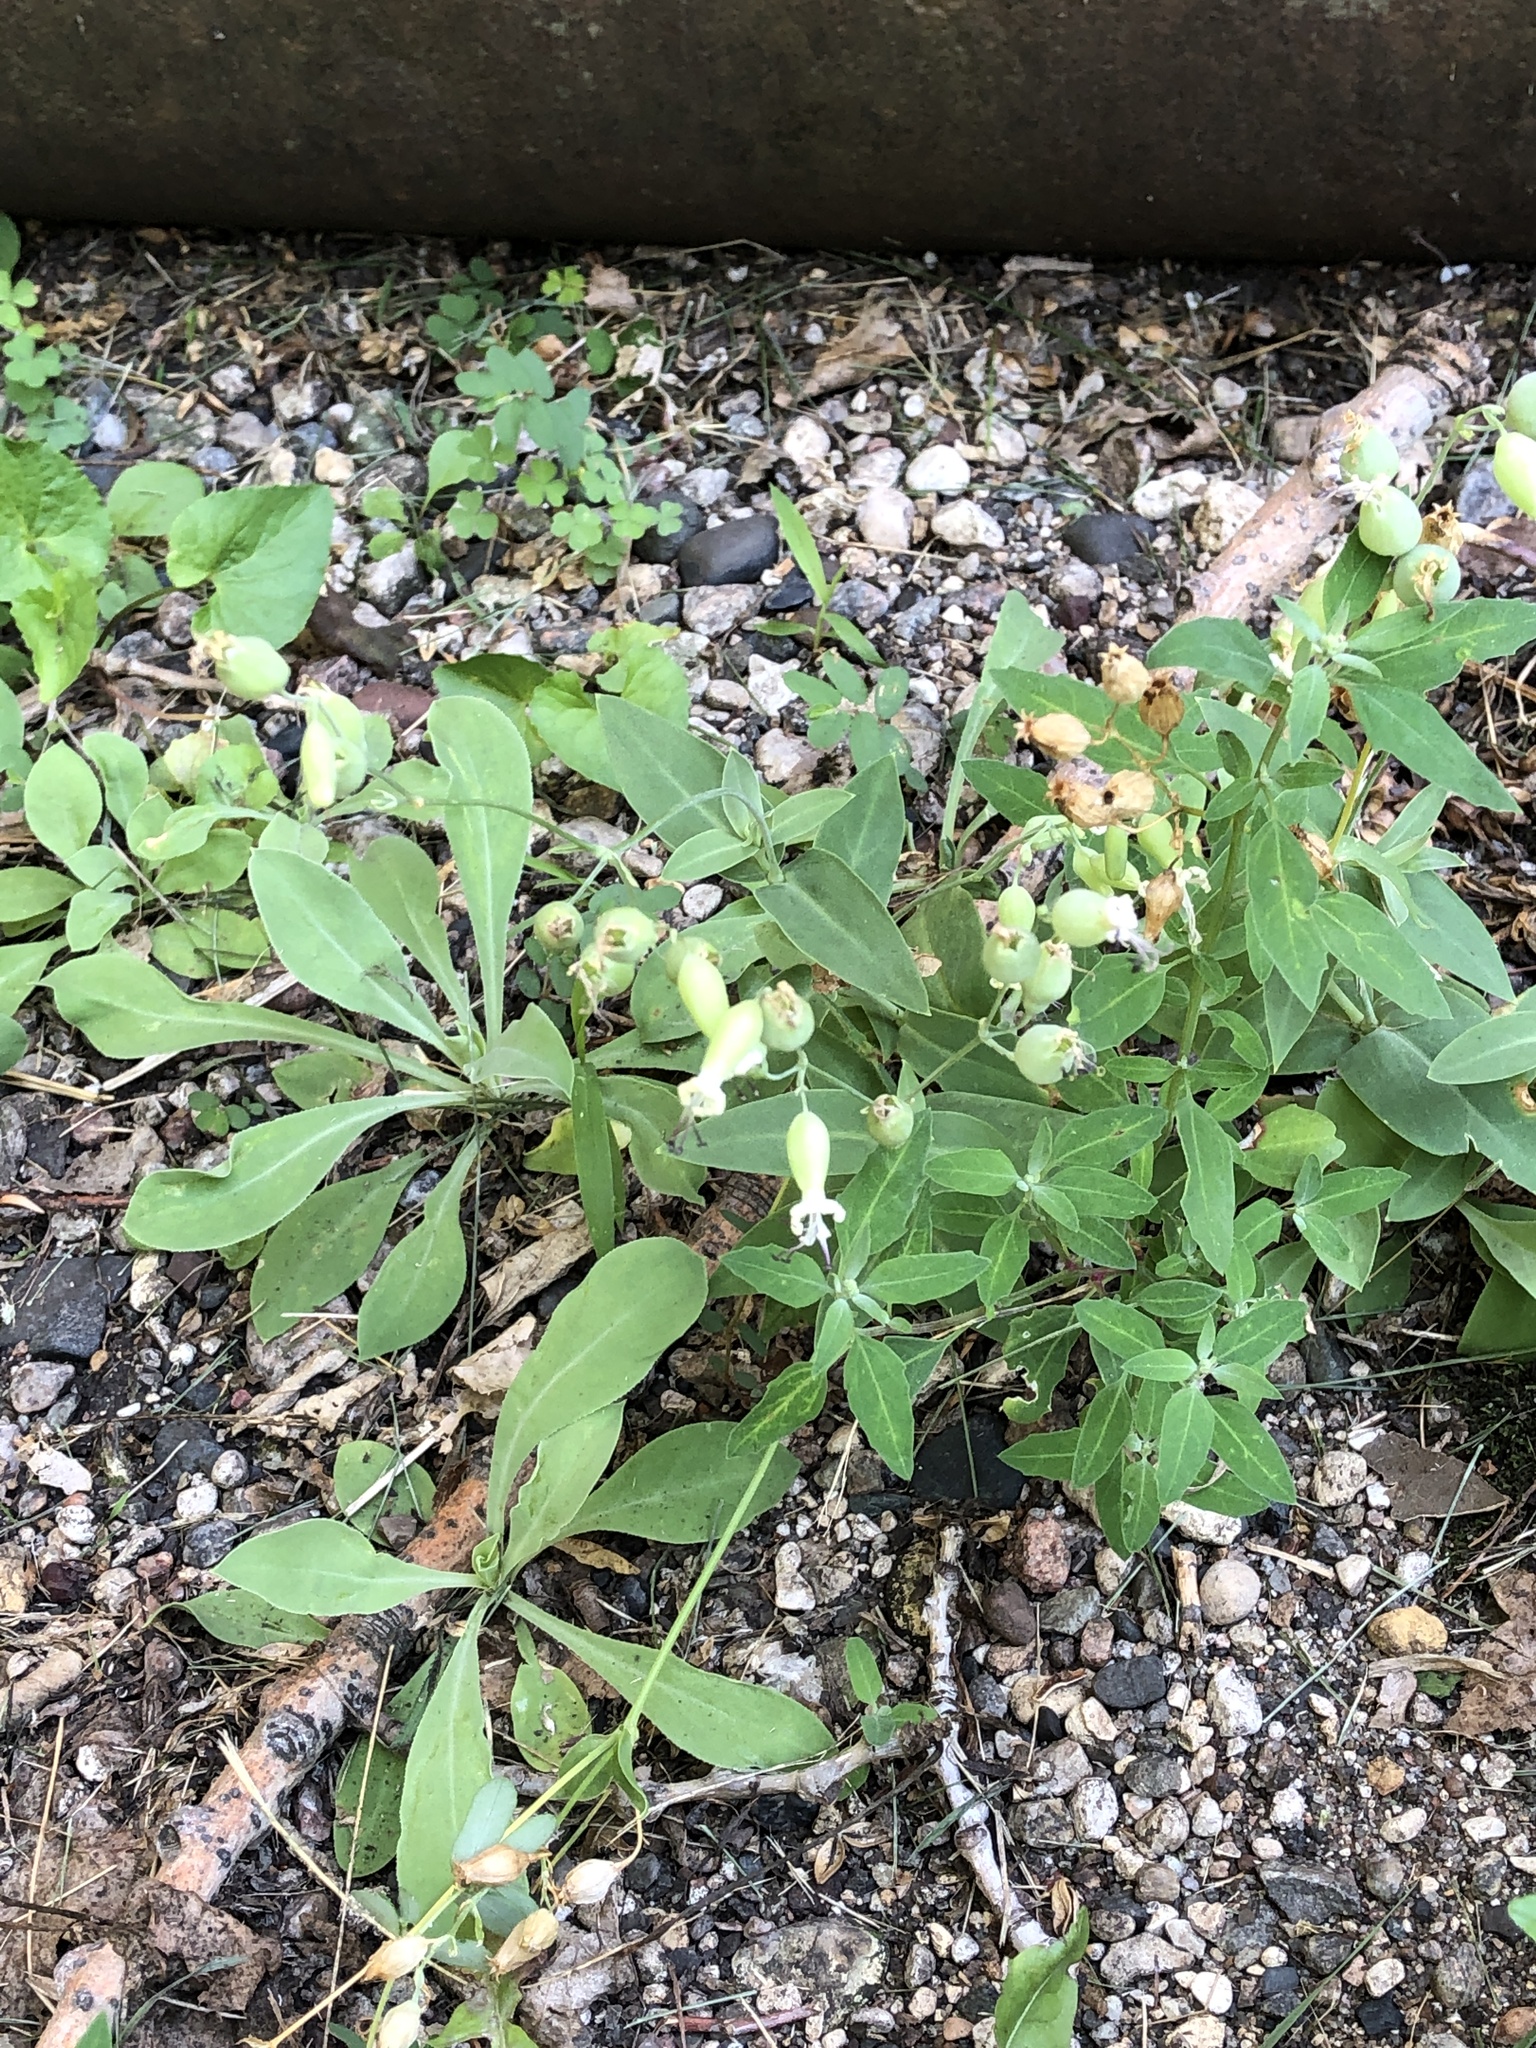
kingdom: Plantae
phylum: Tracheophyta
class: Magnoliopsida
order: Caryophyllales
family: Caryophyllaceae
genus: Silene
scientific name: Silene csereii
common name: Balkan catchfly
